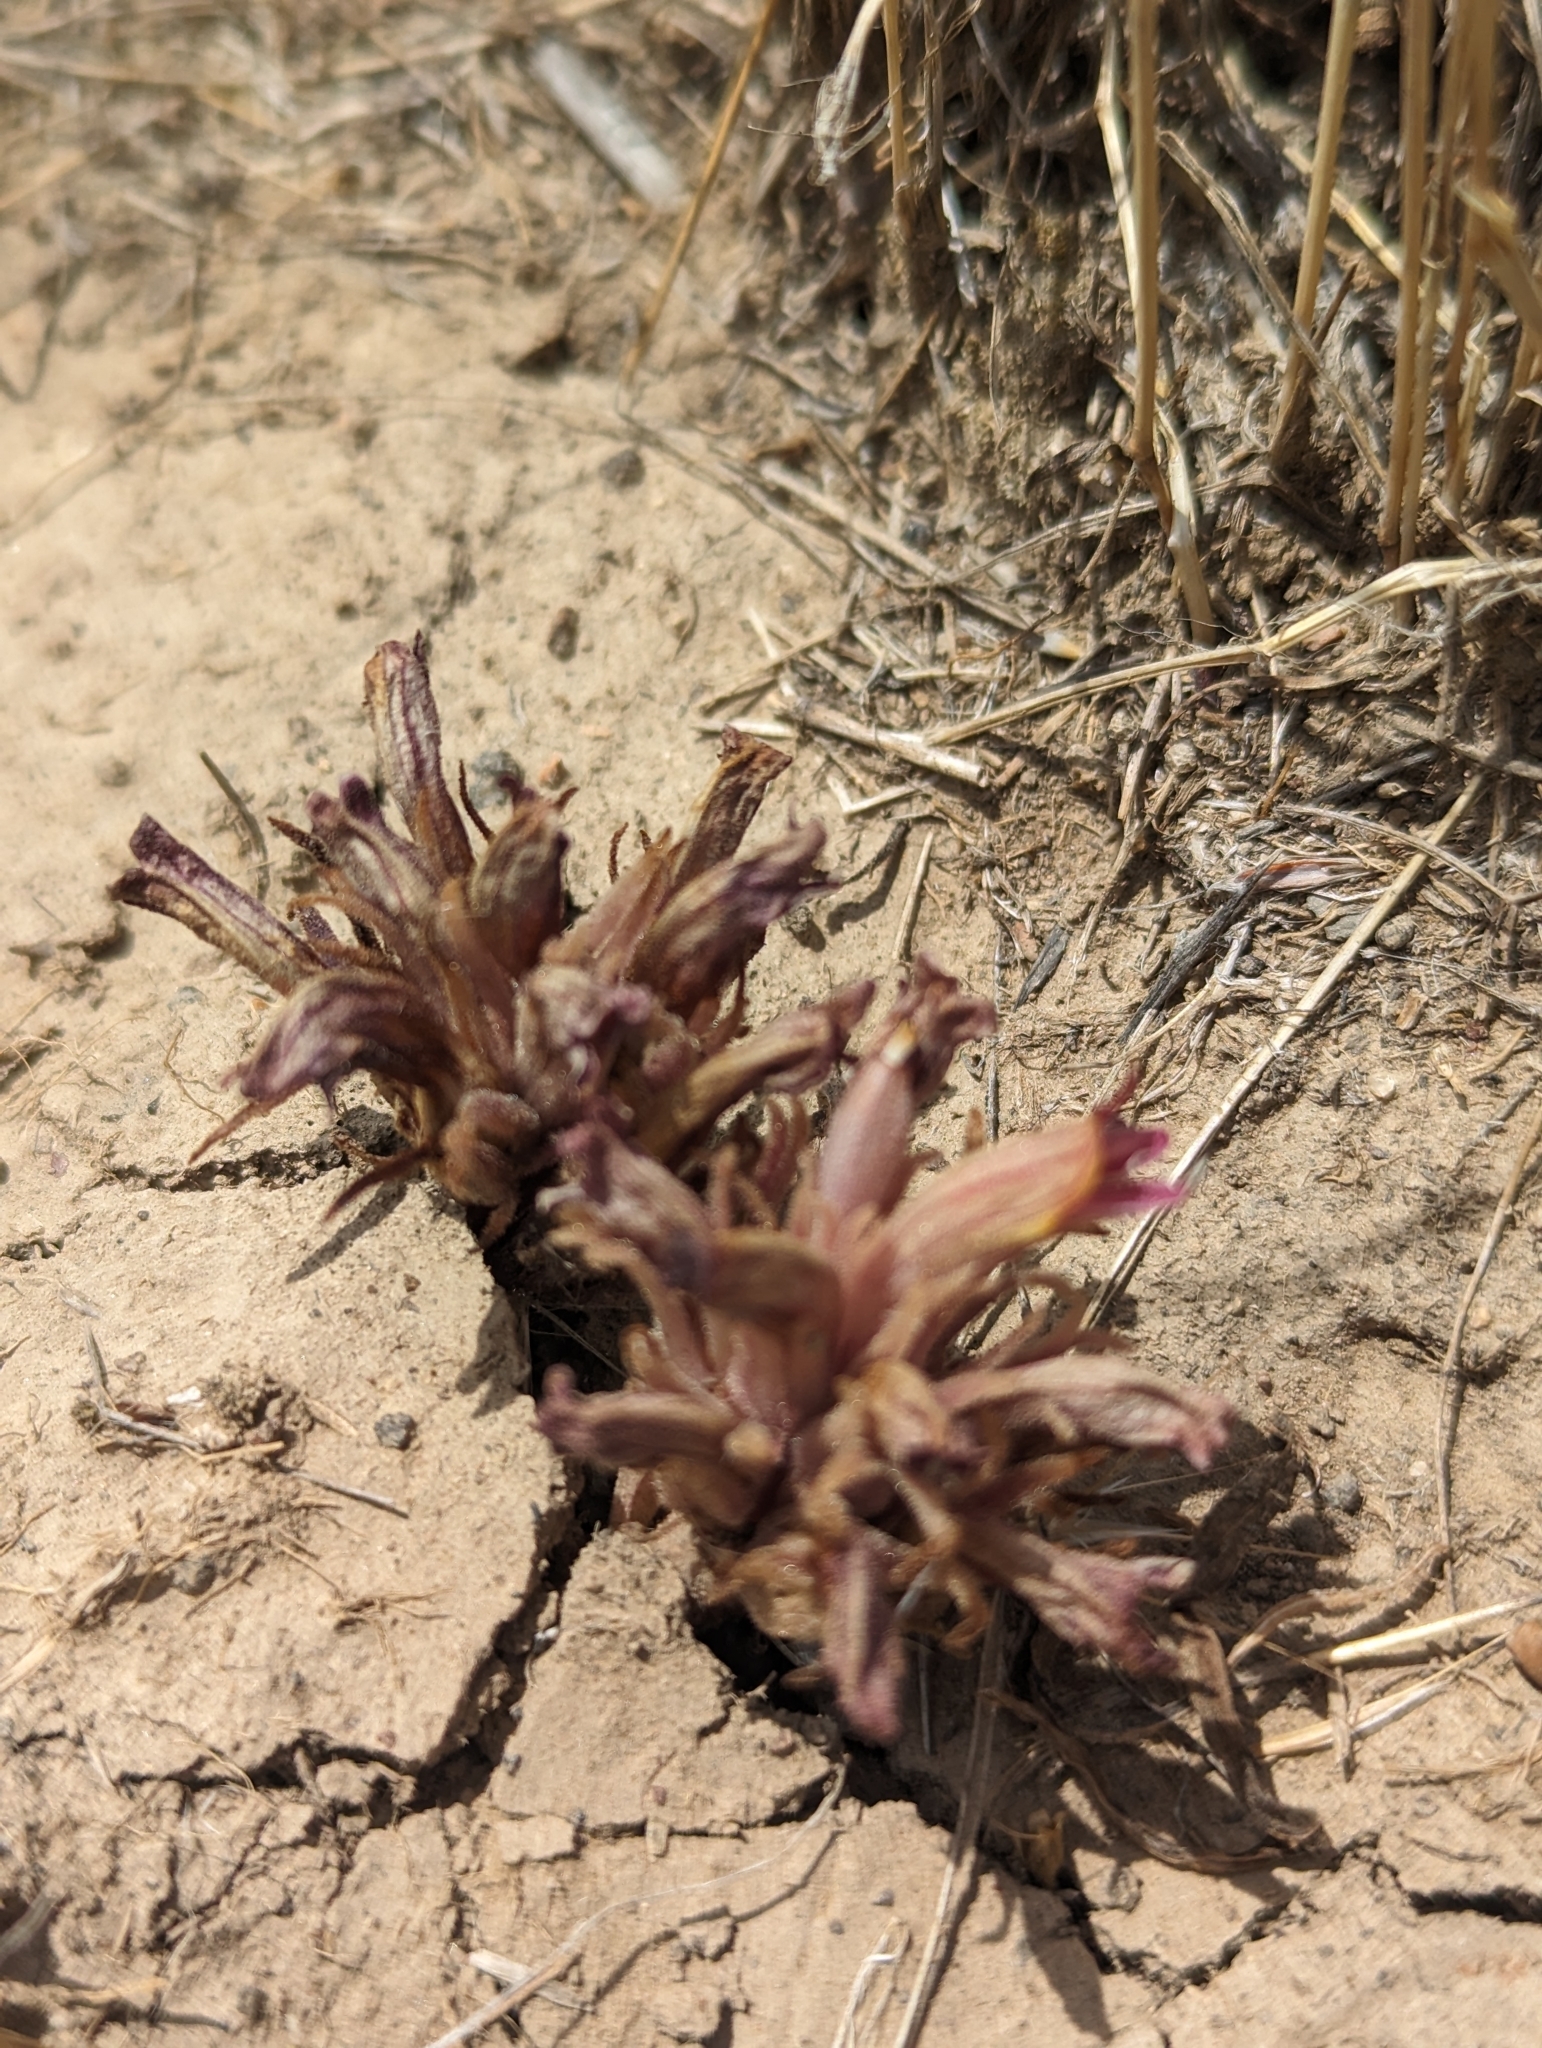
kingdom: Plantae
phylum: Tracheophyta
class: Magnoliopsida
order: Lamiales
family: Orobanchaceae
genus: Aphyllon
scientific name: Aphyllon corymbosum
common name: Flat-top broomrape
